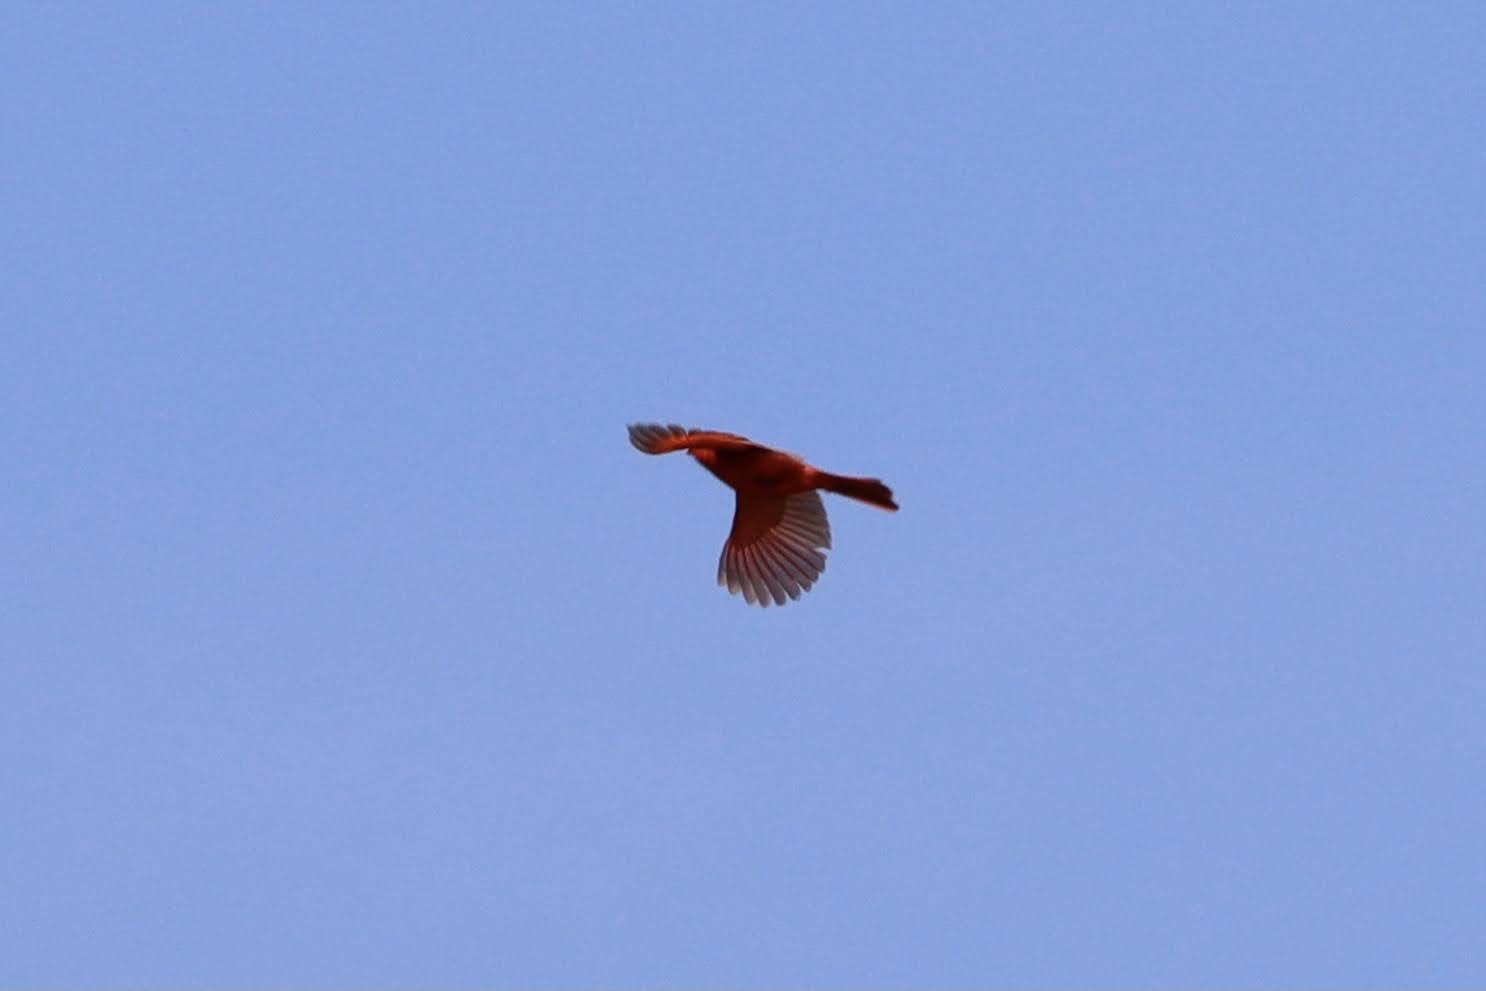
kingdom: Animalia
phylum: Chordata
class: Aves
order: Passeriformes
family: Cardinalidae
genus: Cardinalis
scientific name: Cardinalis cardinalis
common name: Northern cardinal
